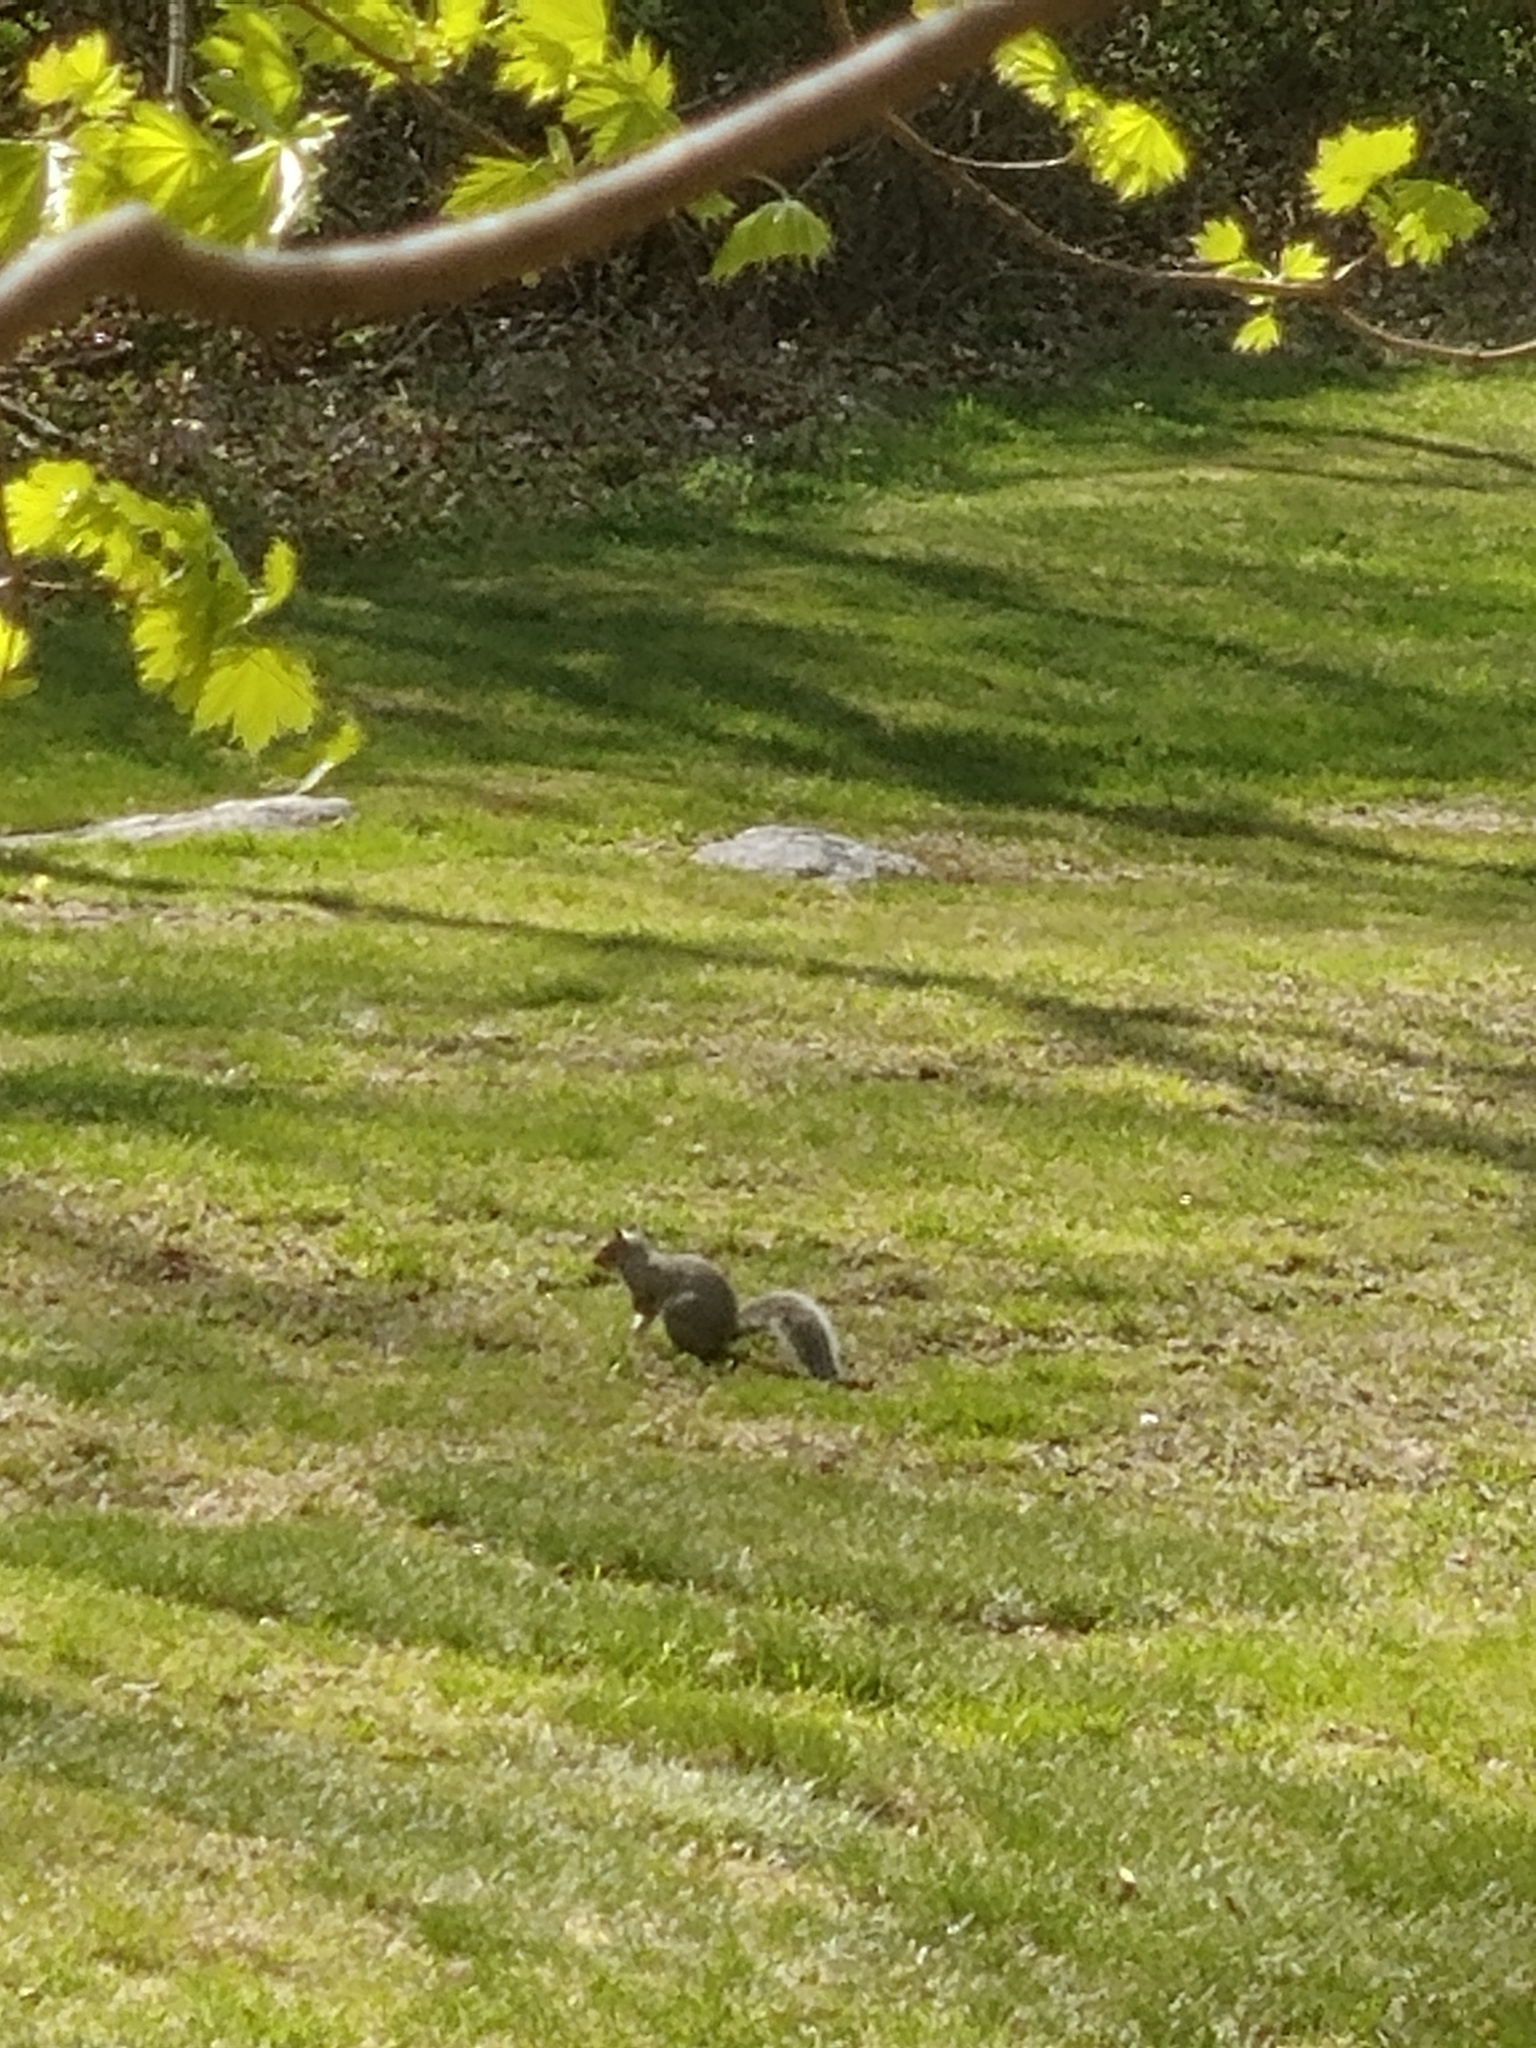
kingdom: Animalia
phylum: Chordata
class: Mammalia
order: Rodentia
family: Sciuridae
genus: Sciurus
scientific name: Sciurus carolinensis
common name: Eastern gray squirrel
